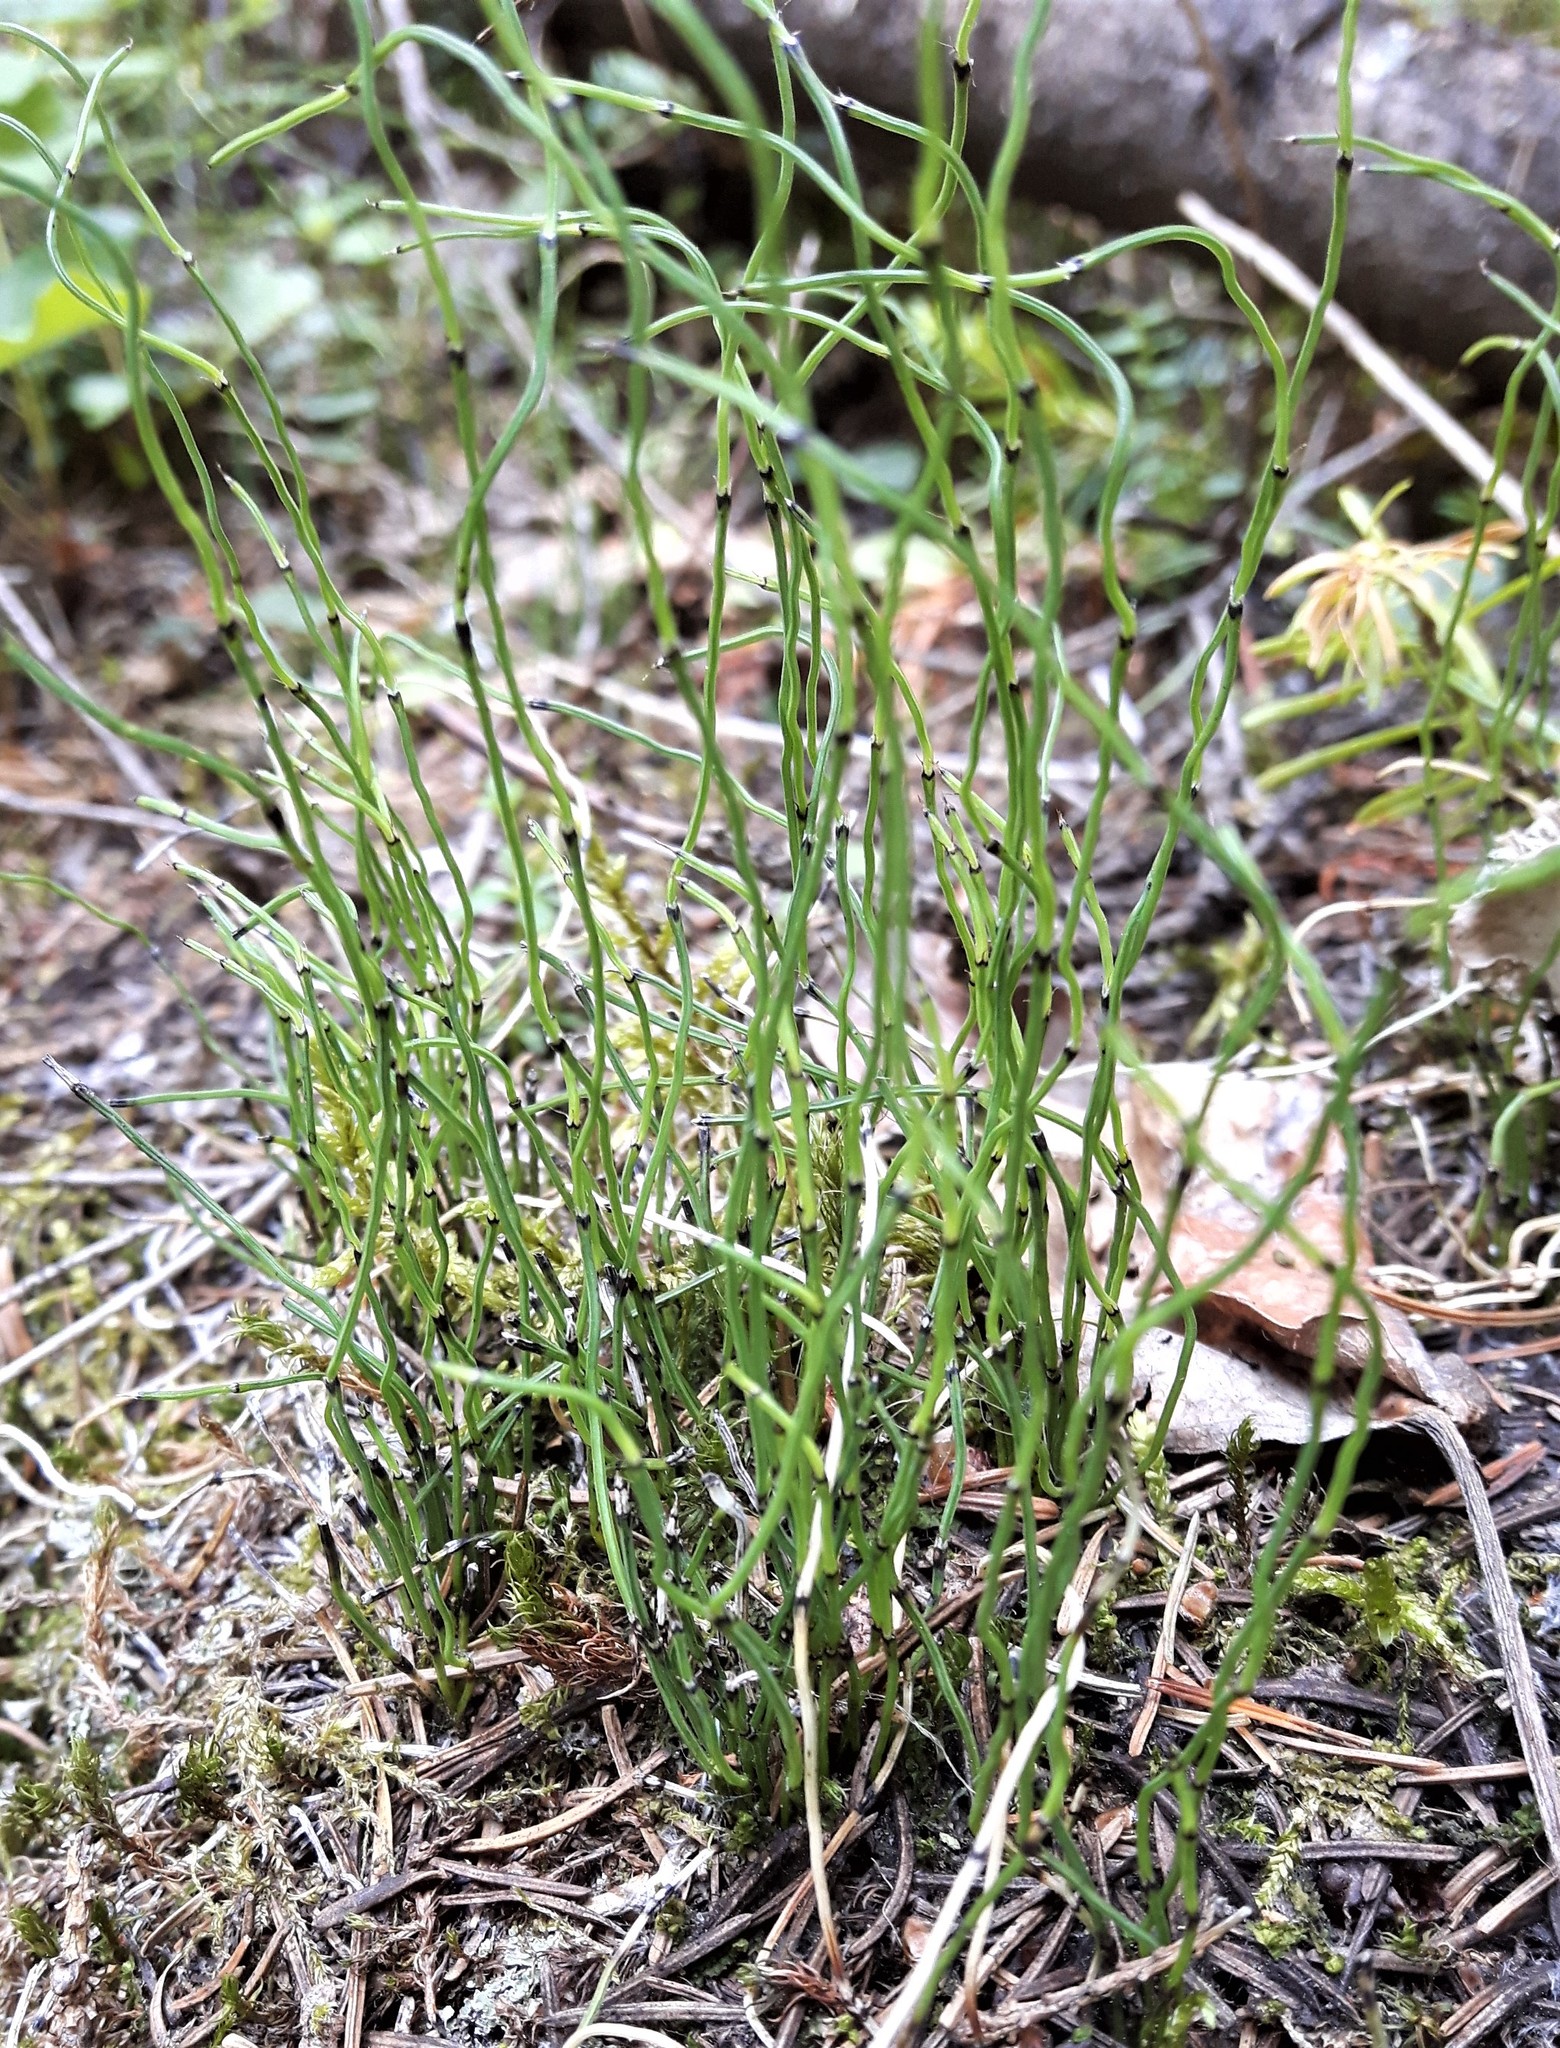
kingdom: Plantae
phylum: Tracheophyta
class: Polypodiopsida
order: Equisetales
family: Equisetaceae
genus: Equisetum
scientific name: Equisetum scirpoides
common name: Delicate horsetail
